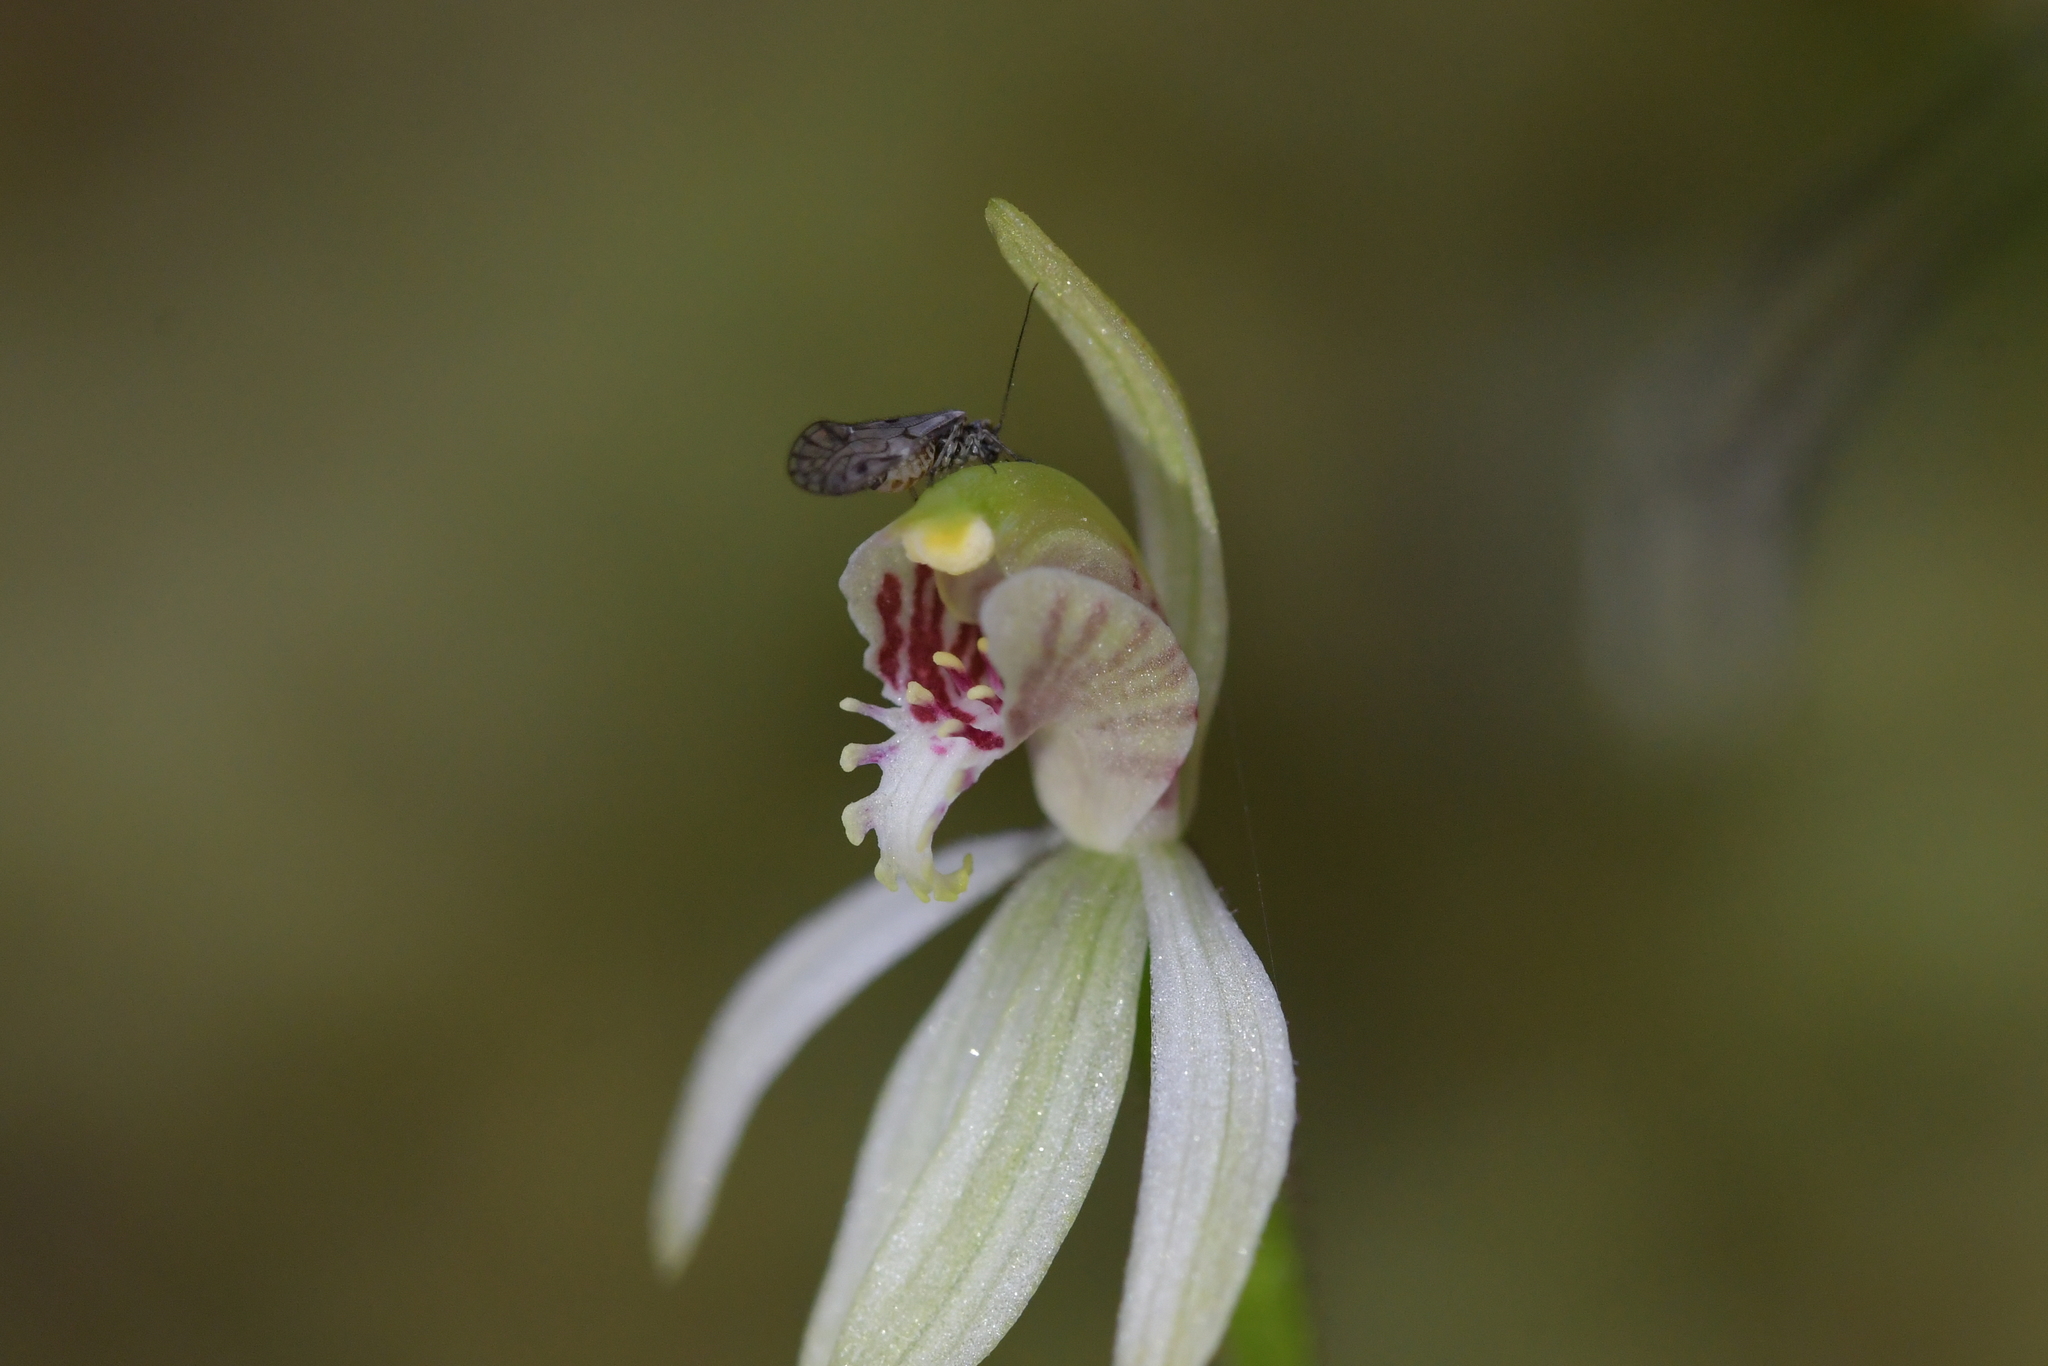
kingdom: Plantae
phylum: Tracheophyta
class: Liliopsida
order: Asparagales
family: Orchidaceae
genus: Caladenia
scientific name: Caladenia chlorostyla
